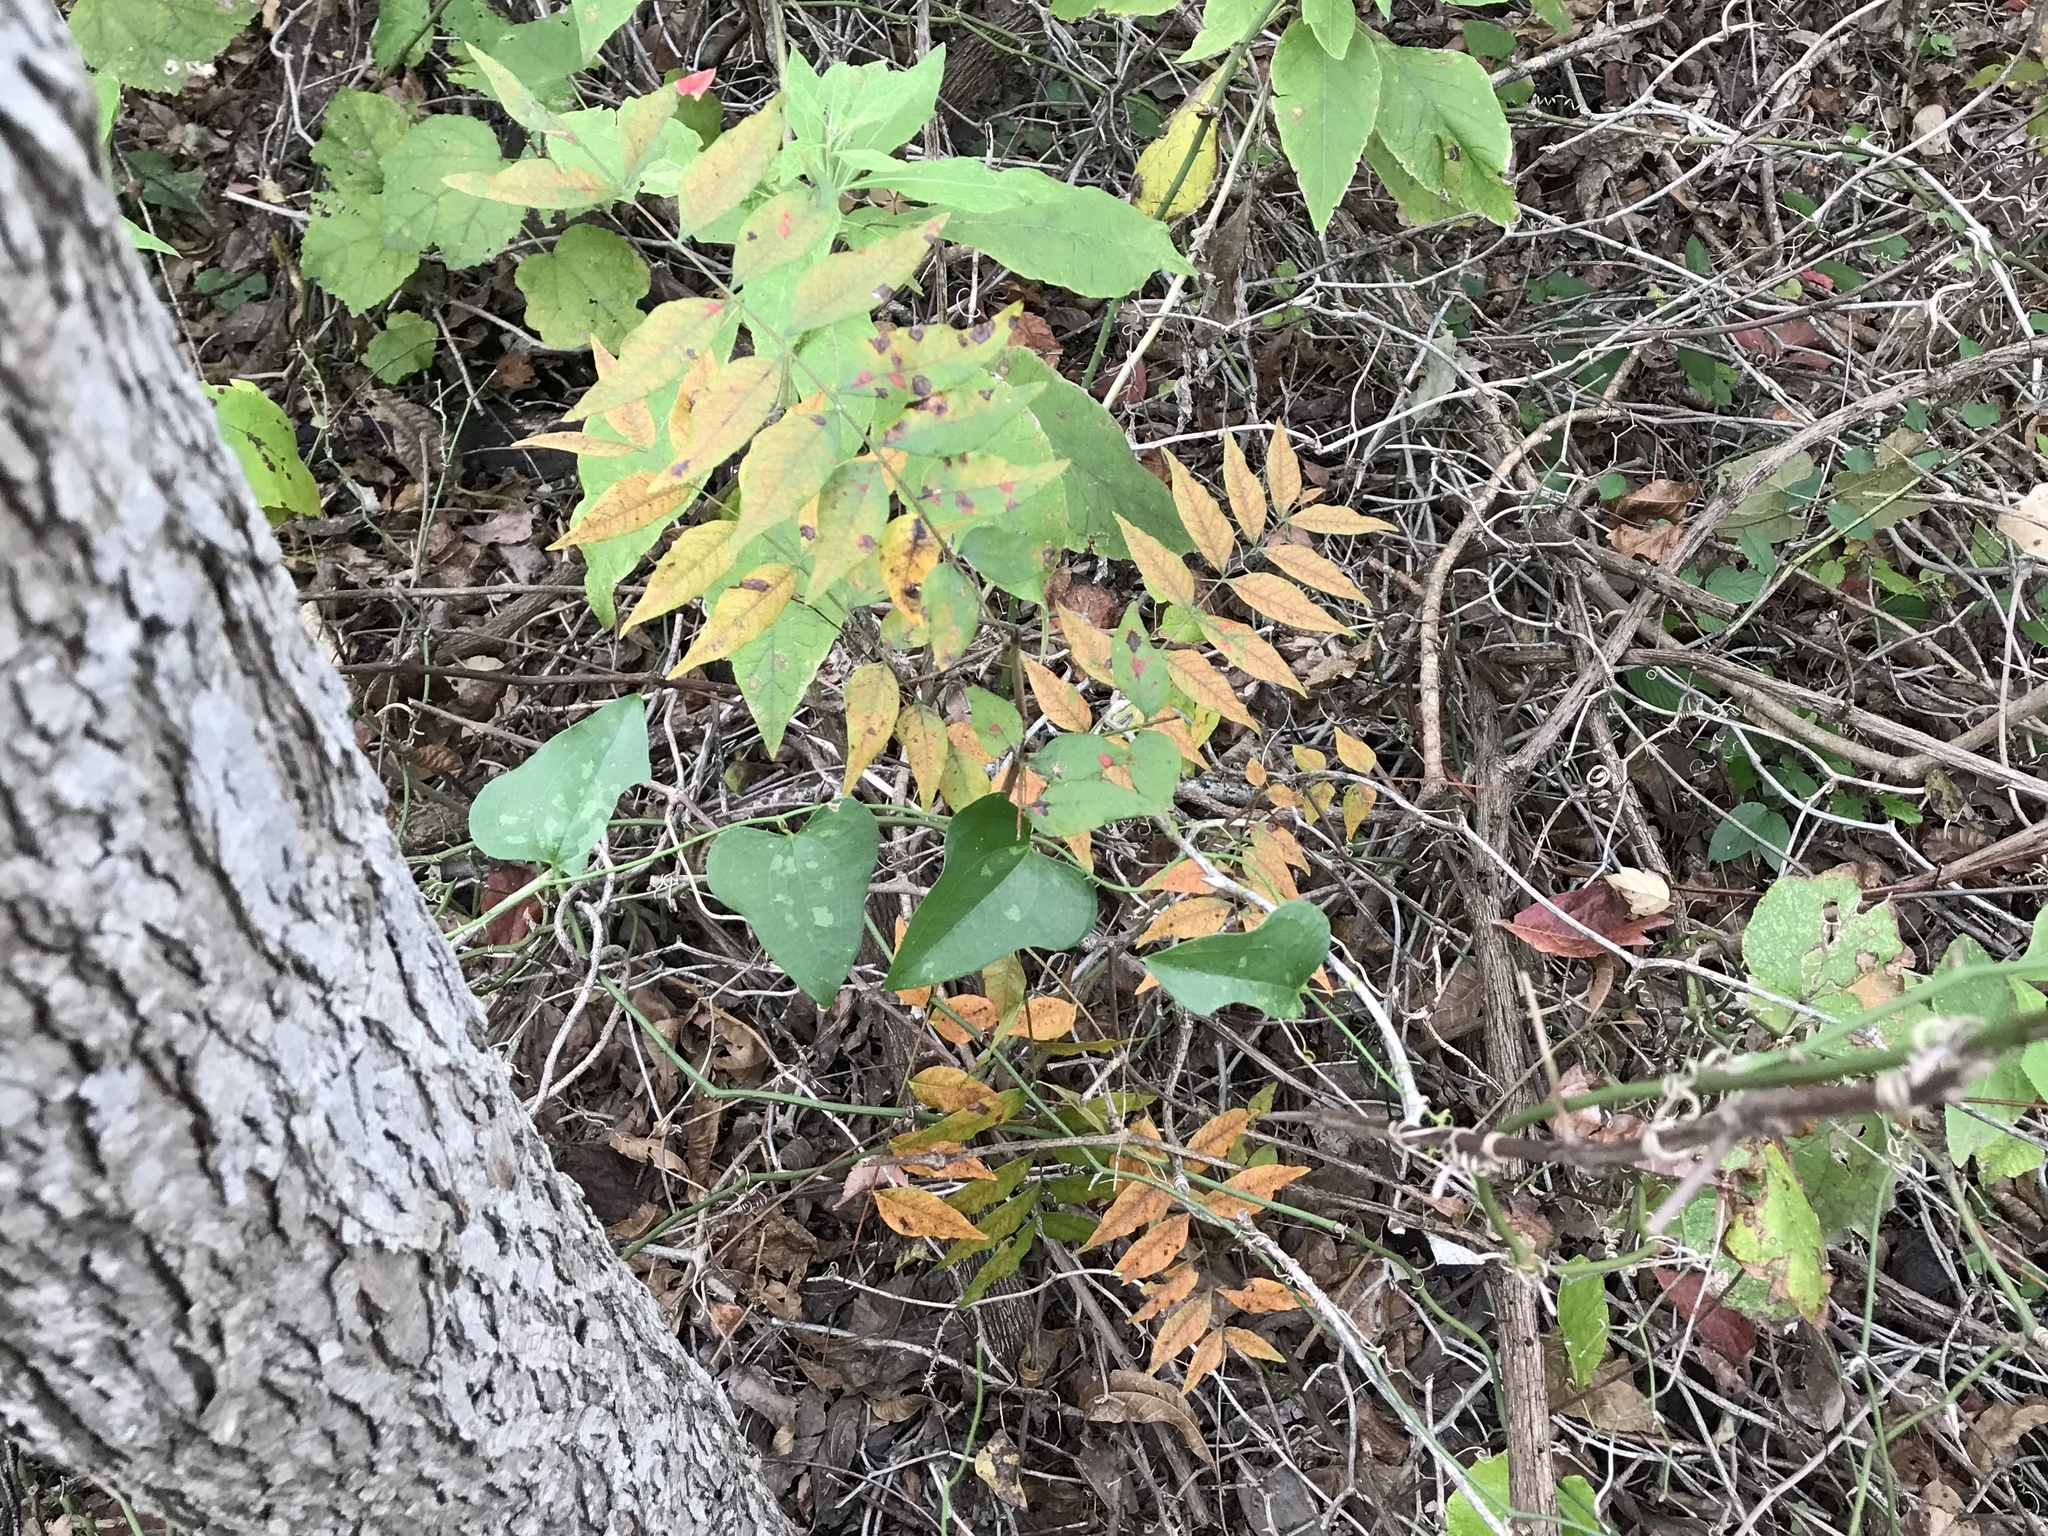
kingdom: Plantae
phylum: Tracheophyta
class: Magnoliopsida
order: Sapindales
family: Anacardiaceae
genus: Pistacia
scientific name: Pistacia chinensis
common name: Chinese pistache
